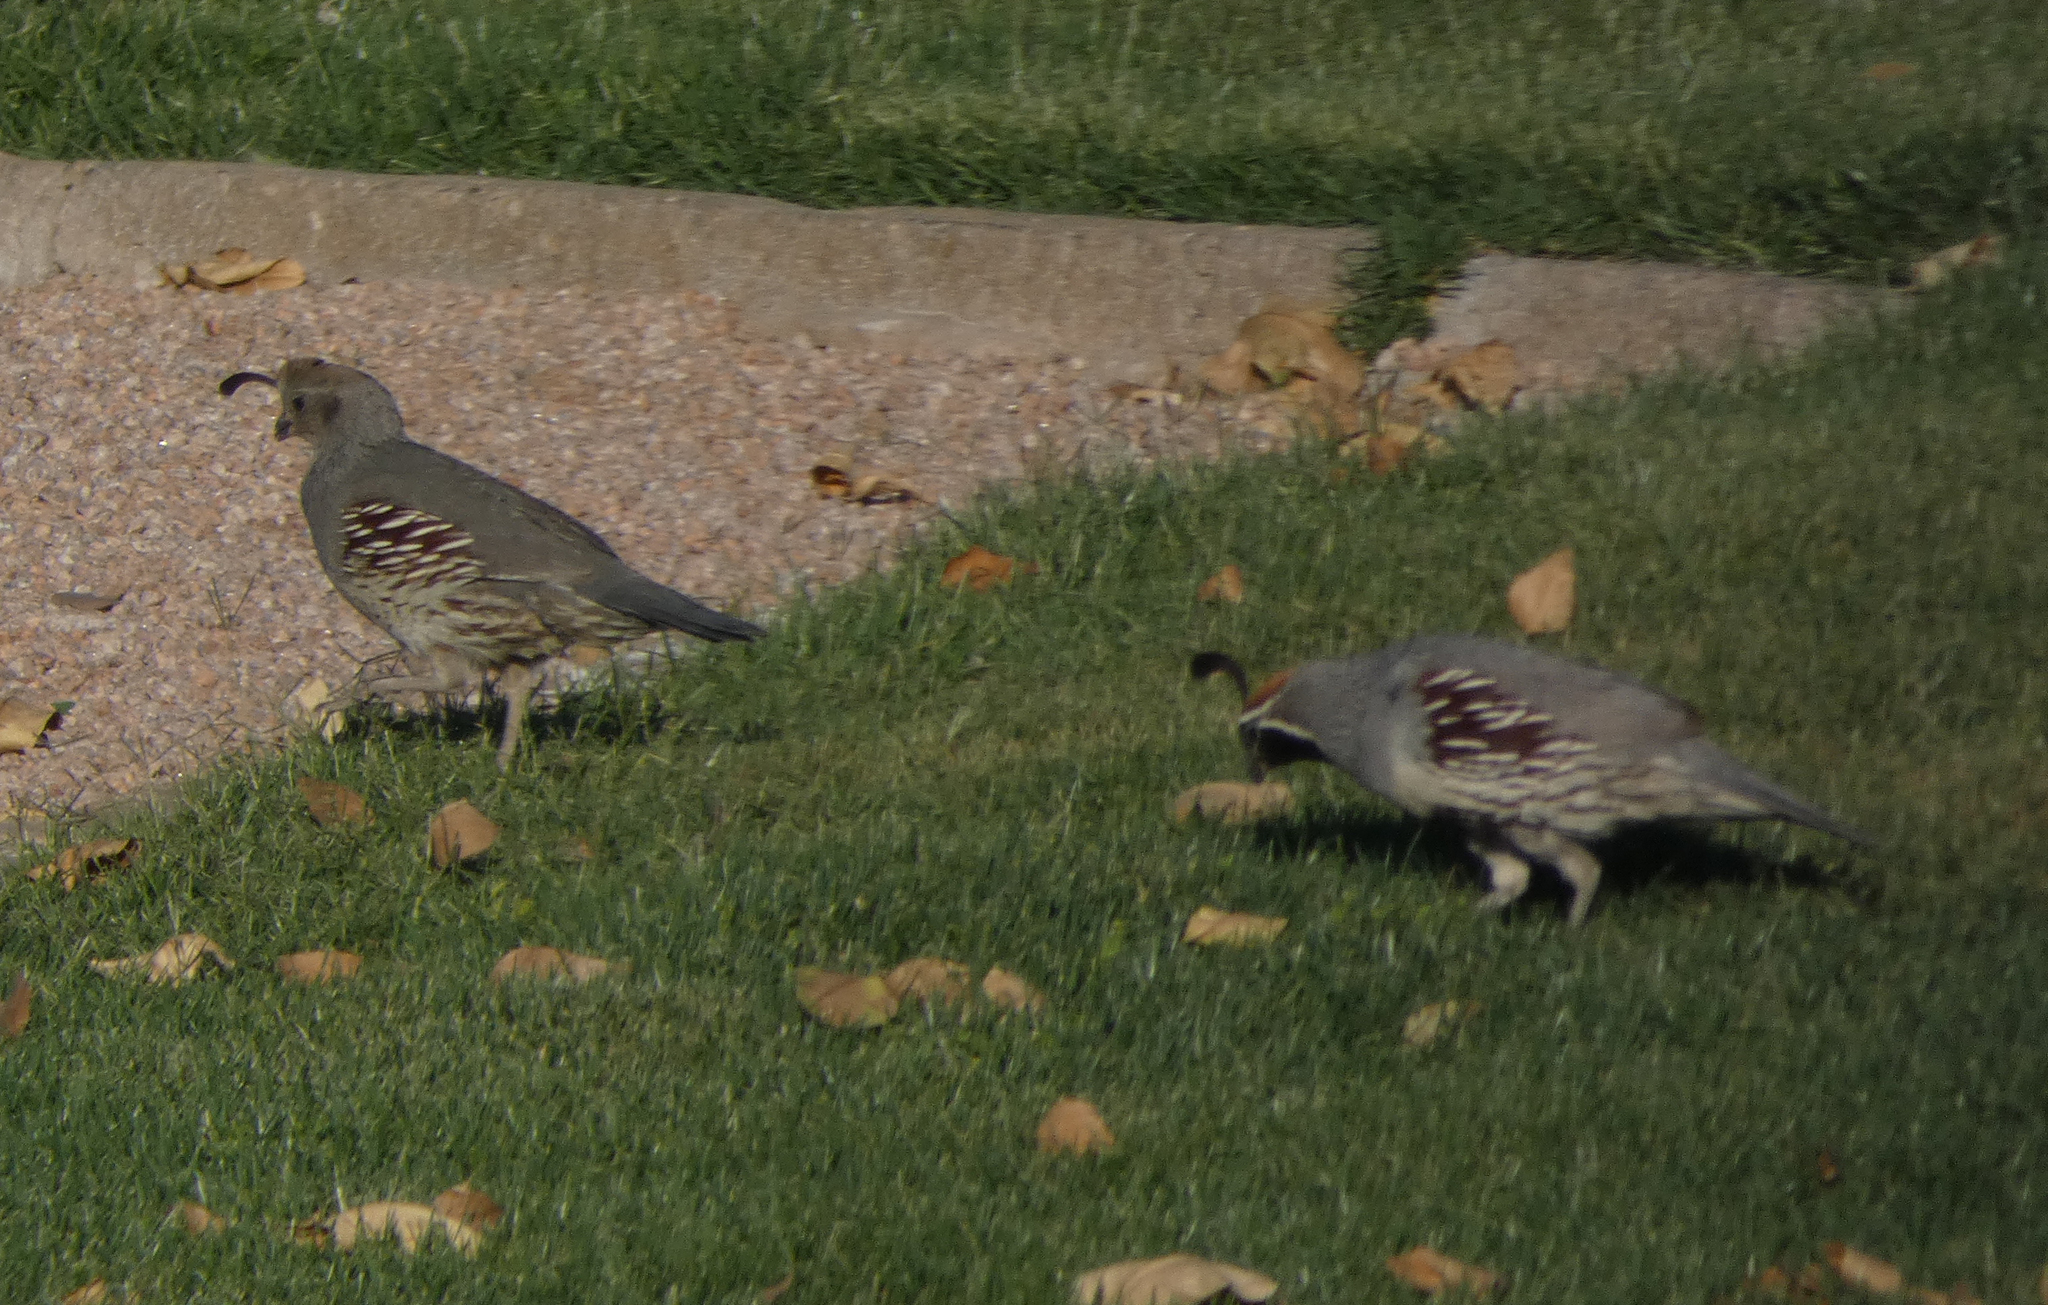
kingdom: Animalia
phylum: Chordata
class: Aves
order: Galliformes
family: Odontophoridae
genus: Callipepla
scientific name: Callipepla gambelii
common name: Gambel's quail
